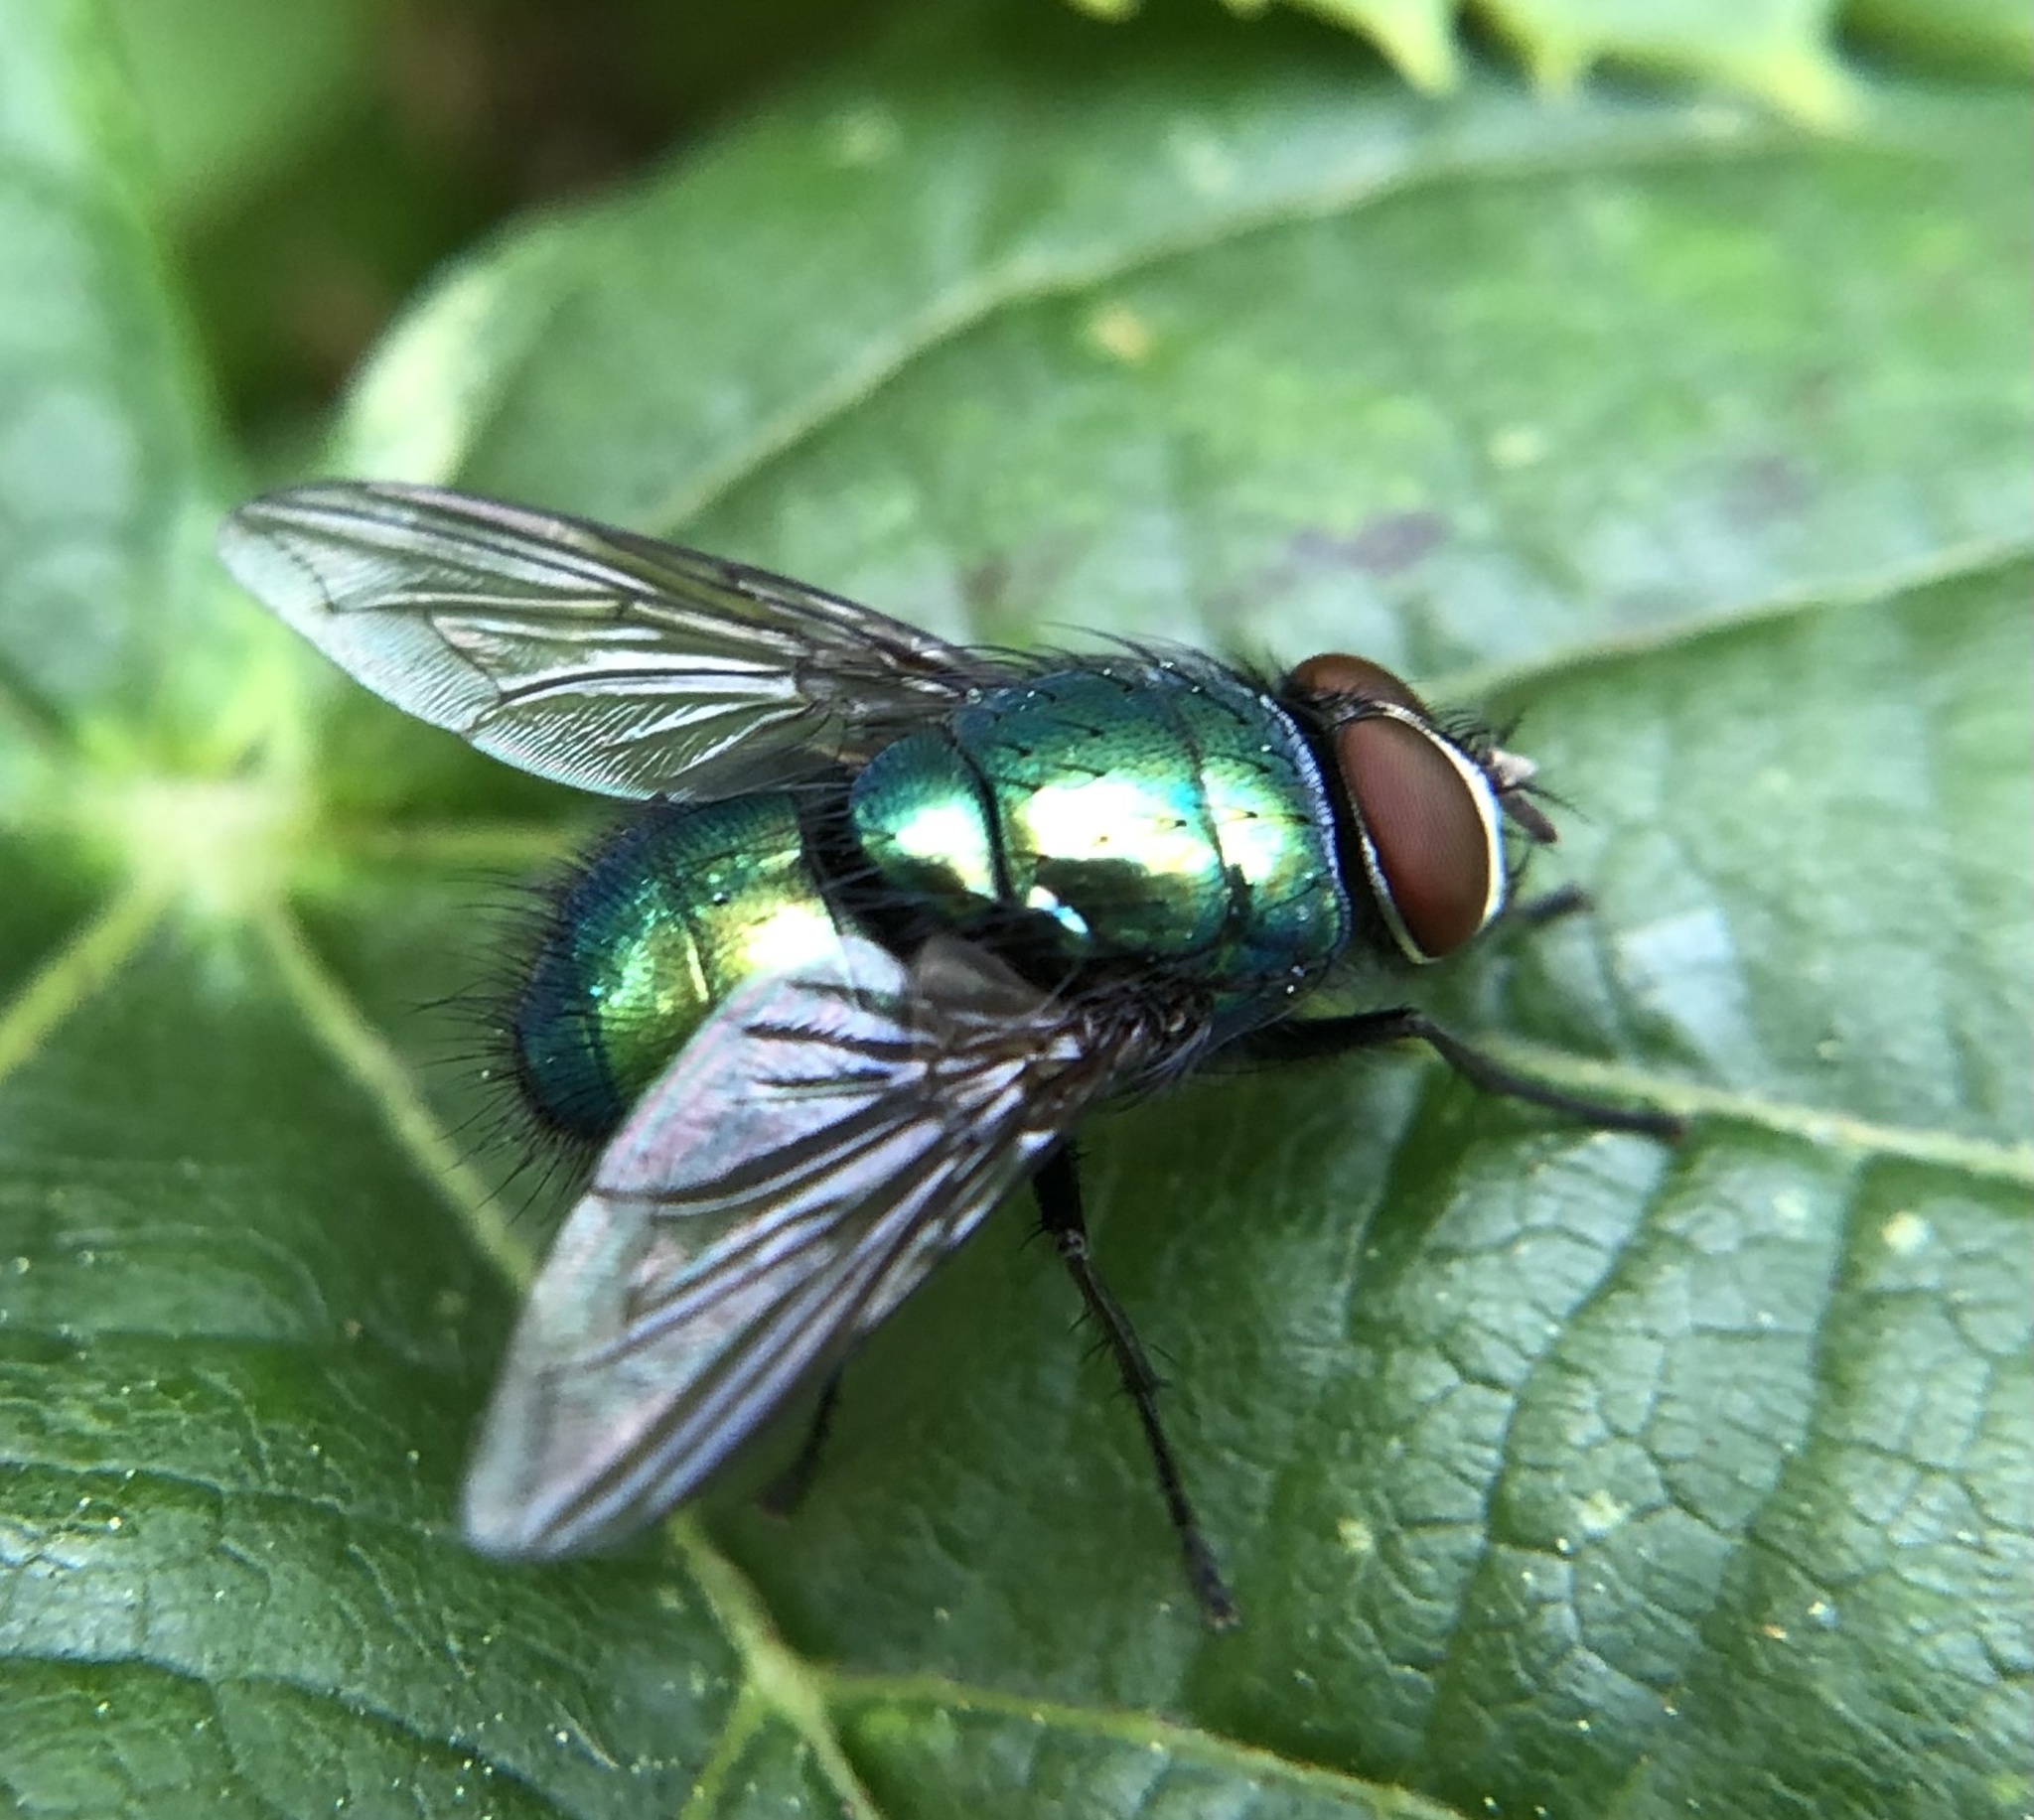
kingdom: Animalia
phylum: Arthropoda
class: Insecta
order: Diptera
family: Calliphoridae
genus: Lucilia
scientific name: Lucilia
